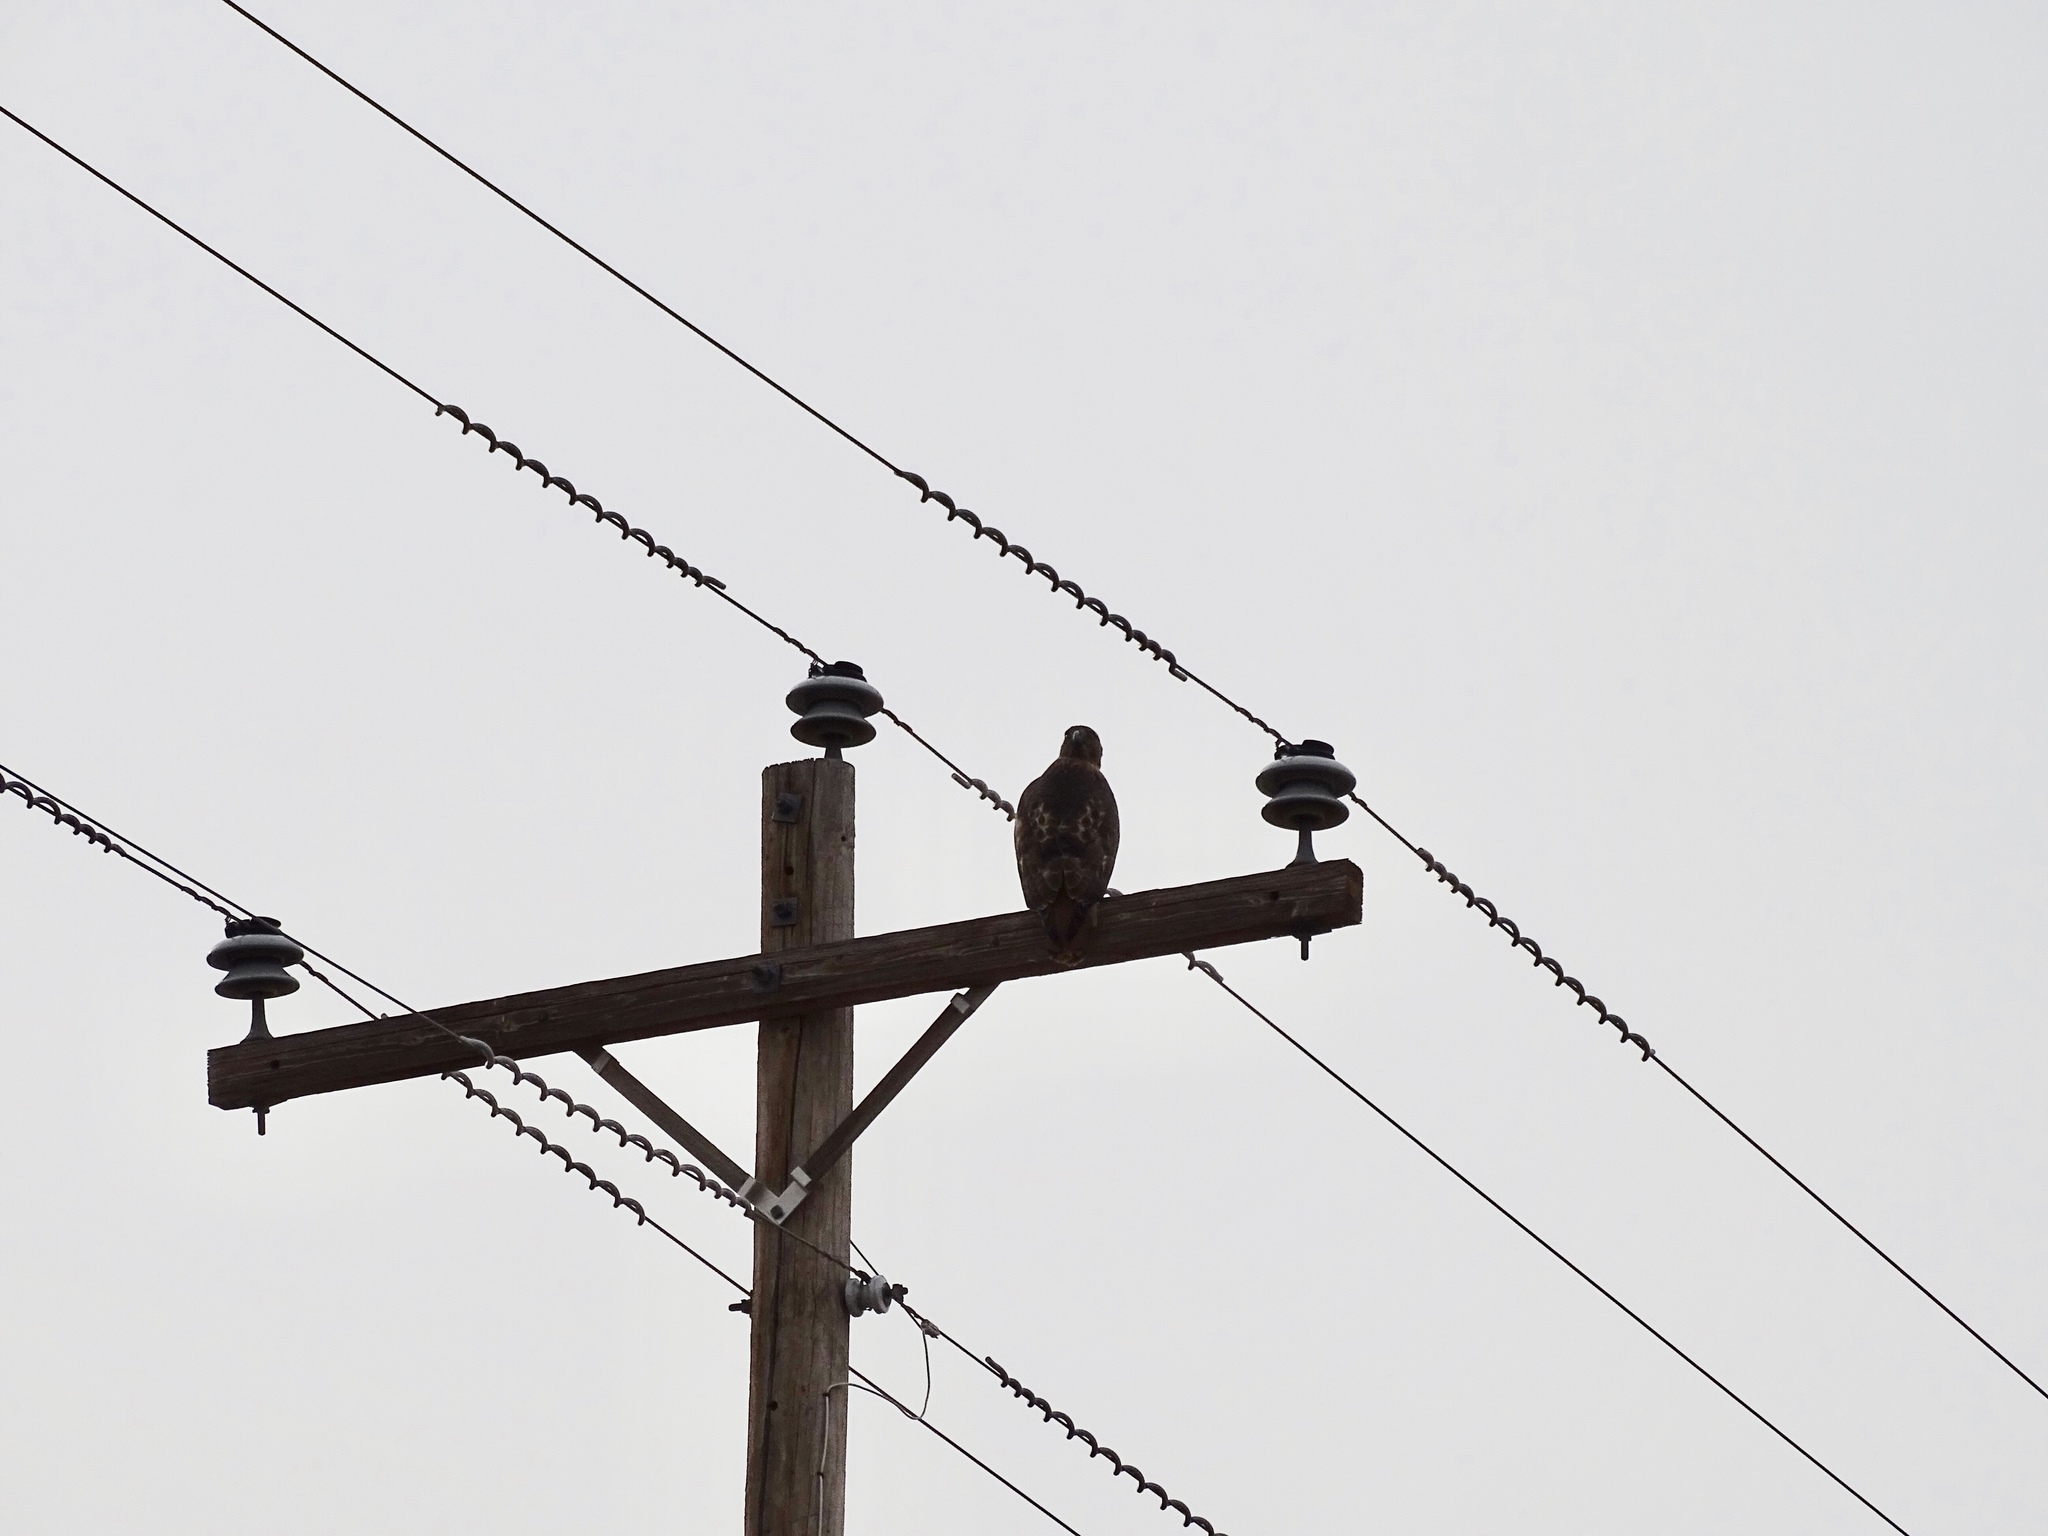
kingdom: Animalia
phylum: Chordata
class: Aves
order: Accipitriformes
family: Accipitridae
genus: Buteo
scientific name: Buteo jamaicensis
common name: Red-tailed hawk
